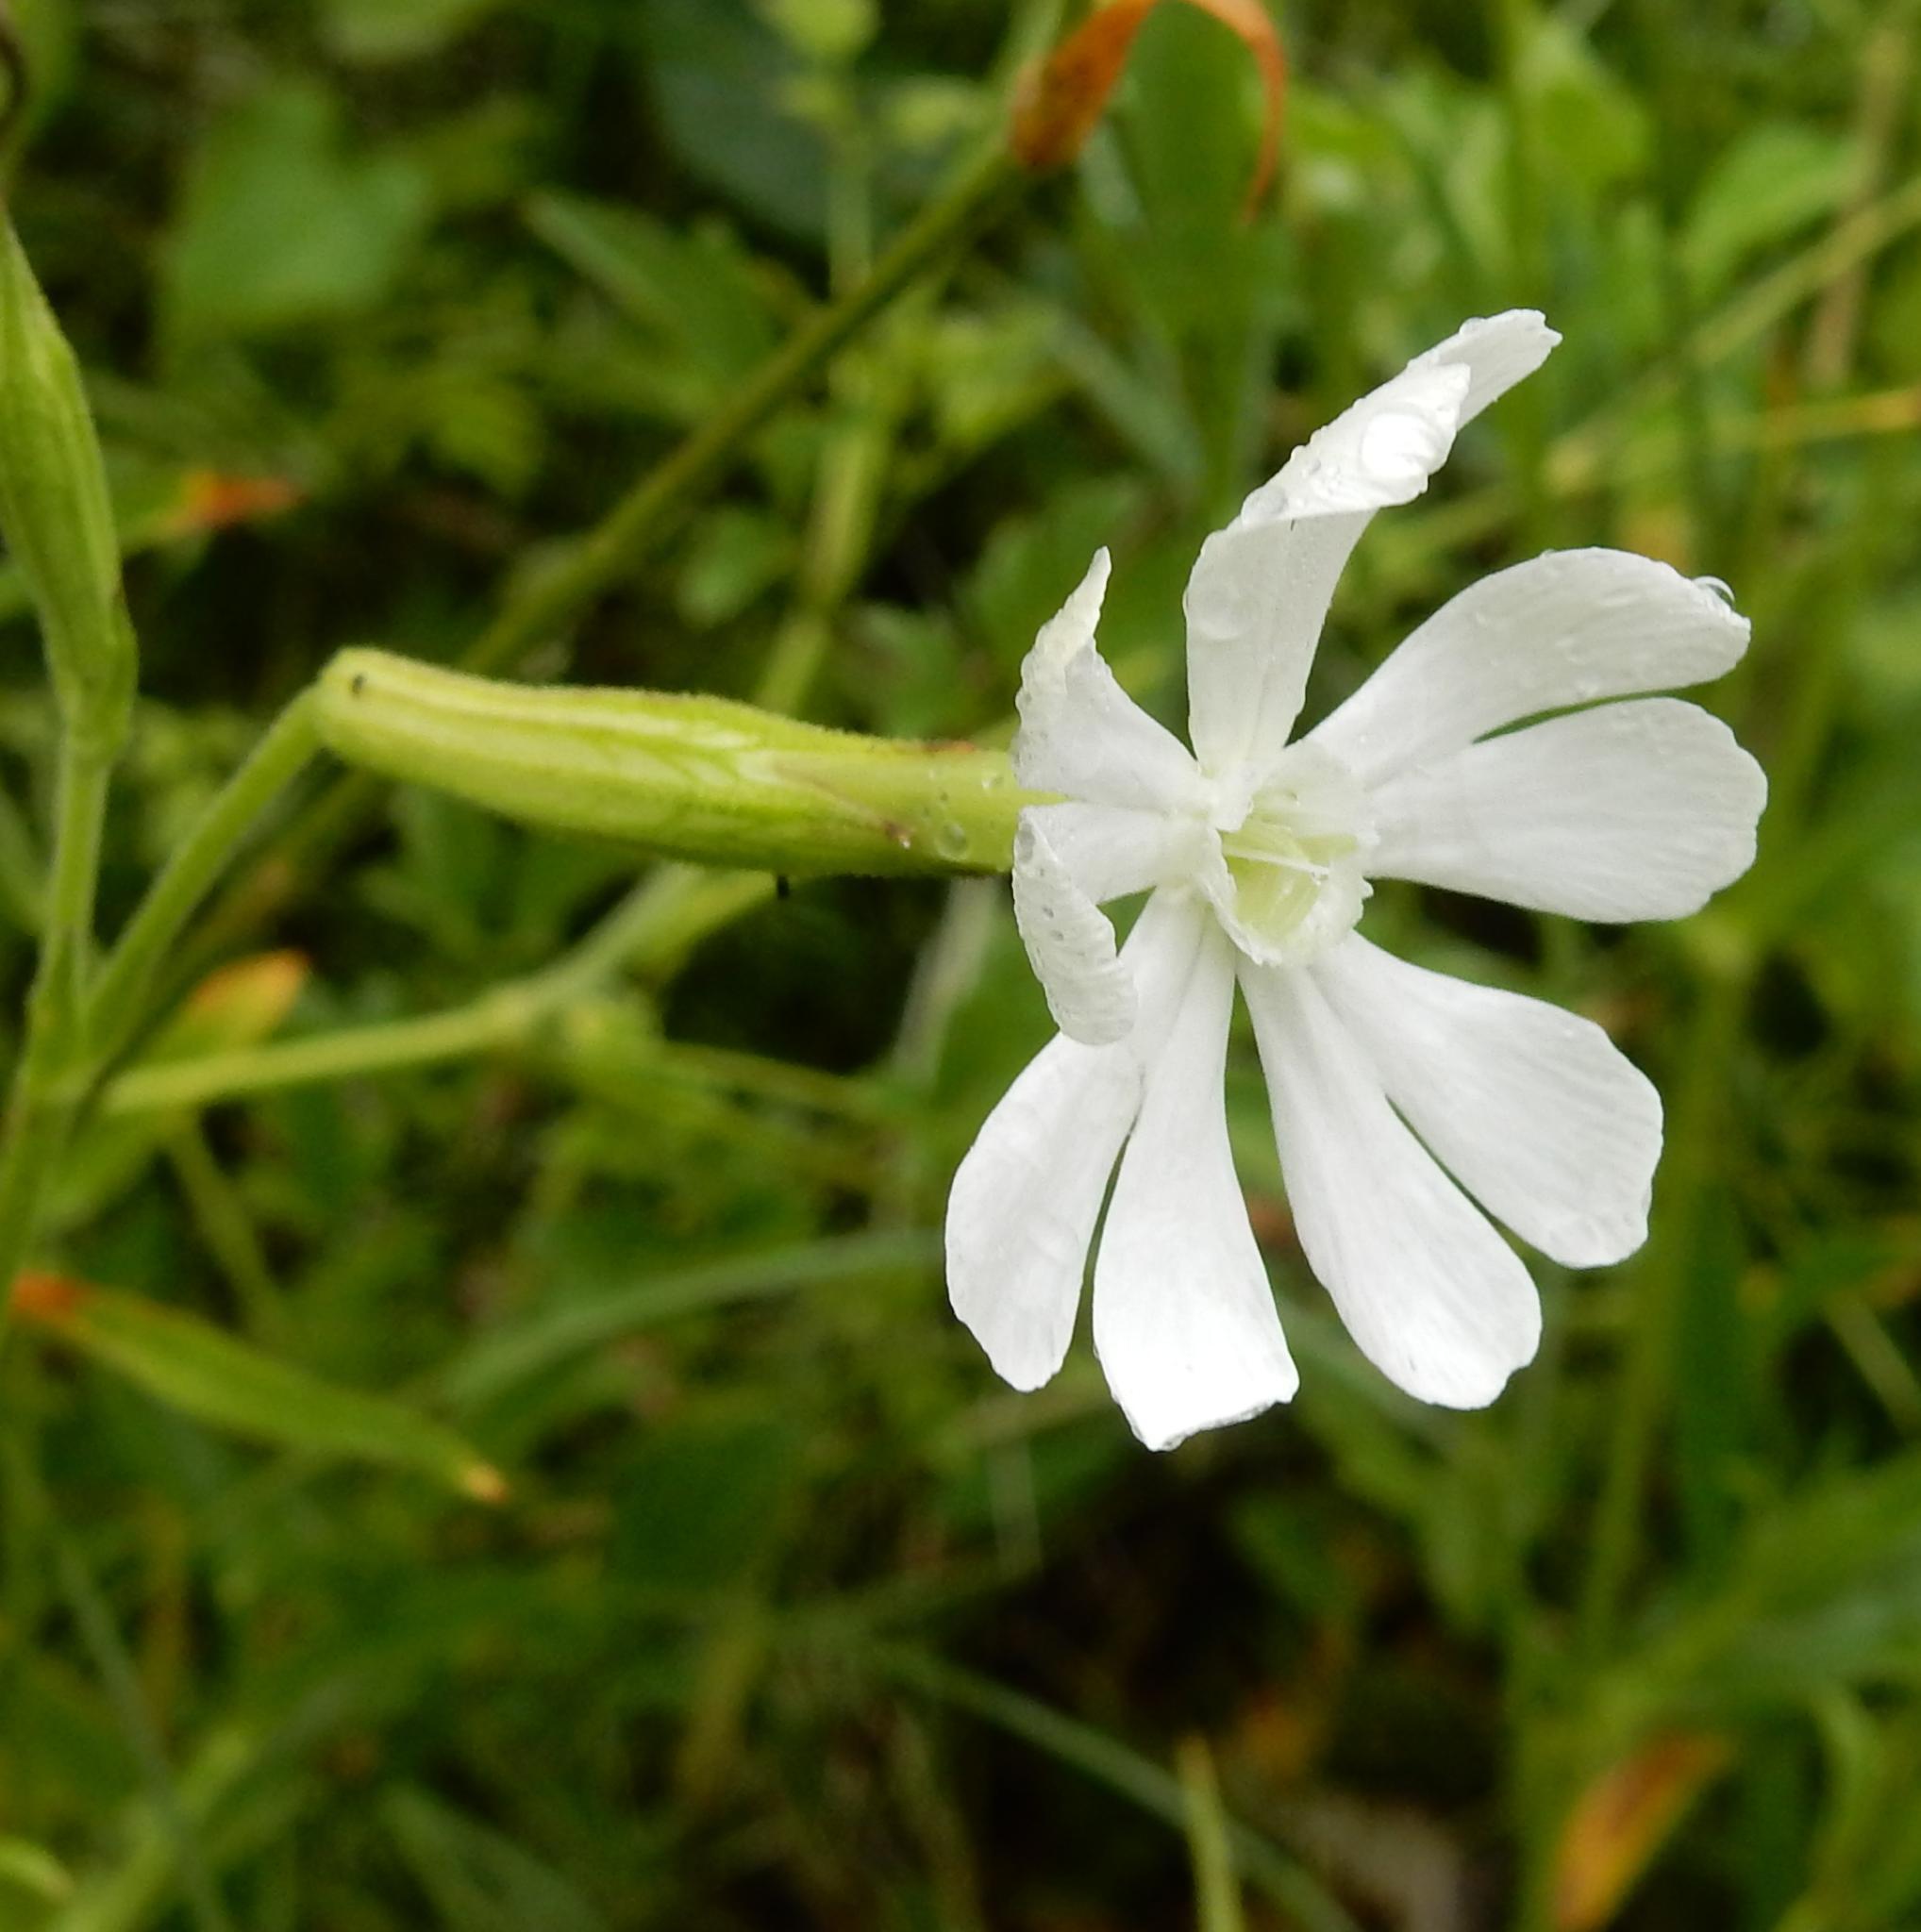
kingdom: Plantae
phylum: Tracheophyta
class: Magnoliopsida
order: Caryophyllales
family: Caryophyllaceae
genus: Silene
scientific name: Silene undulata
